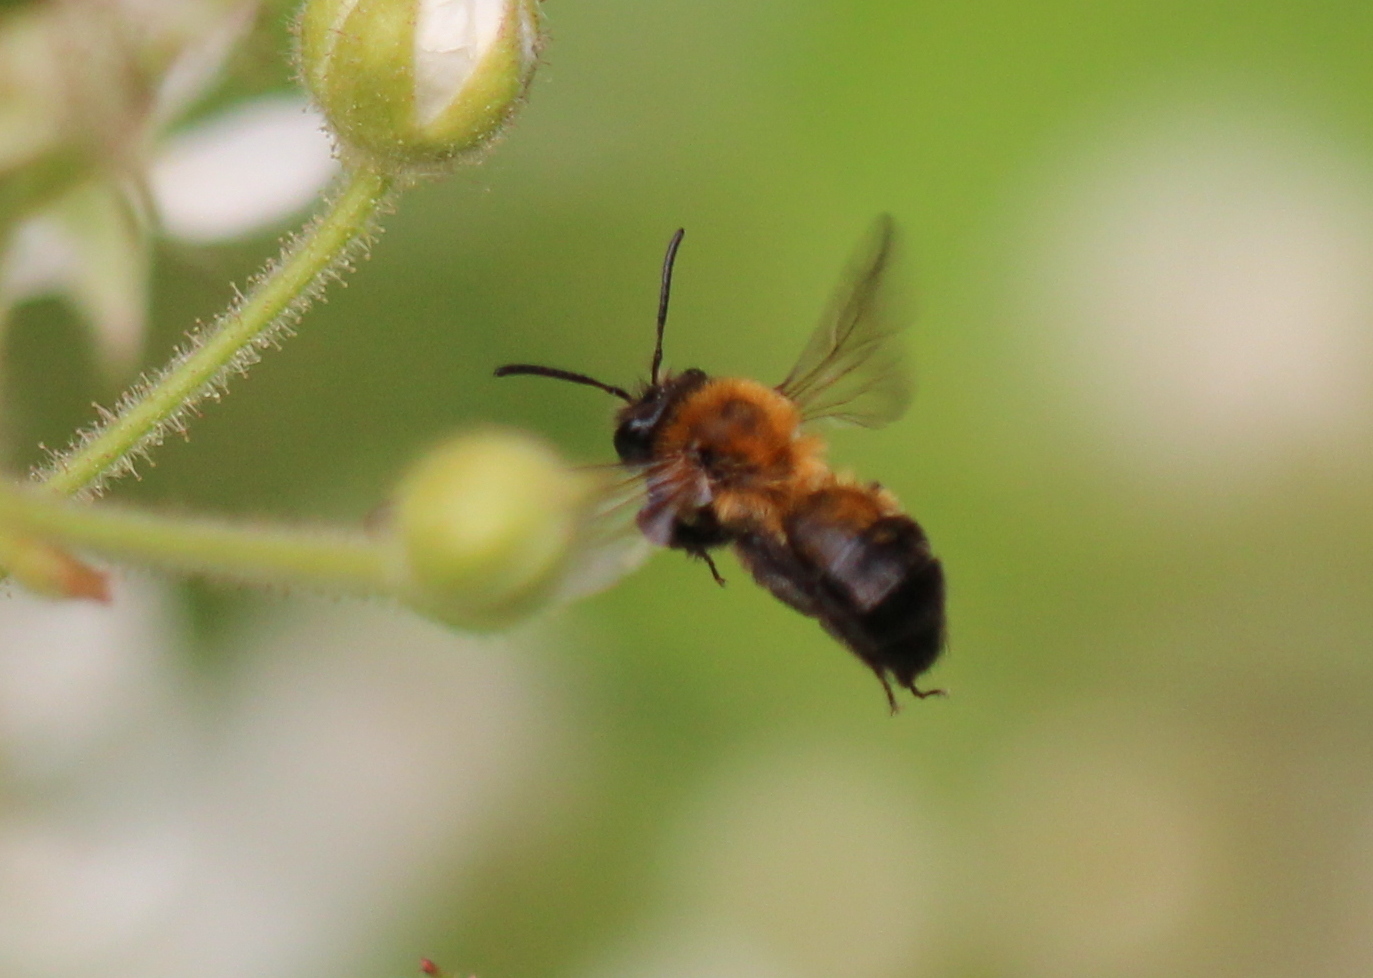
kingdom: Animalia
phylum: Arthropoda
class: Insecta
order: Hymenoptera
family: Andrenidae
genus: Andrena
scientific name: Andrena milwaukeensis
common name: Milwaukee mining bee
